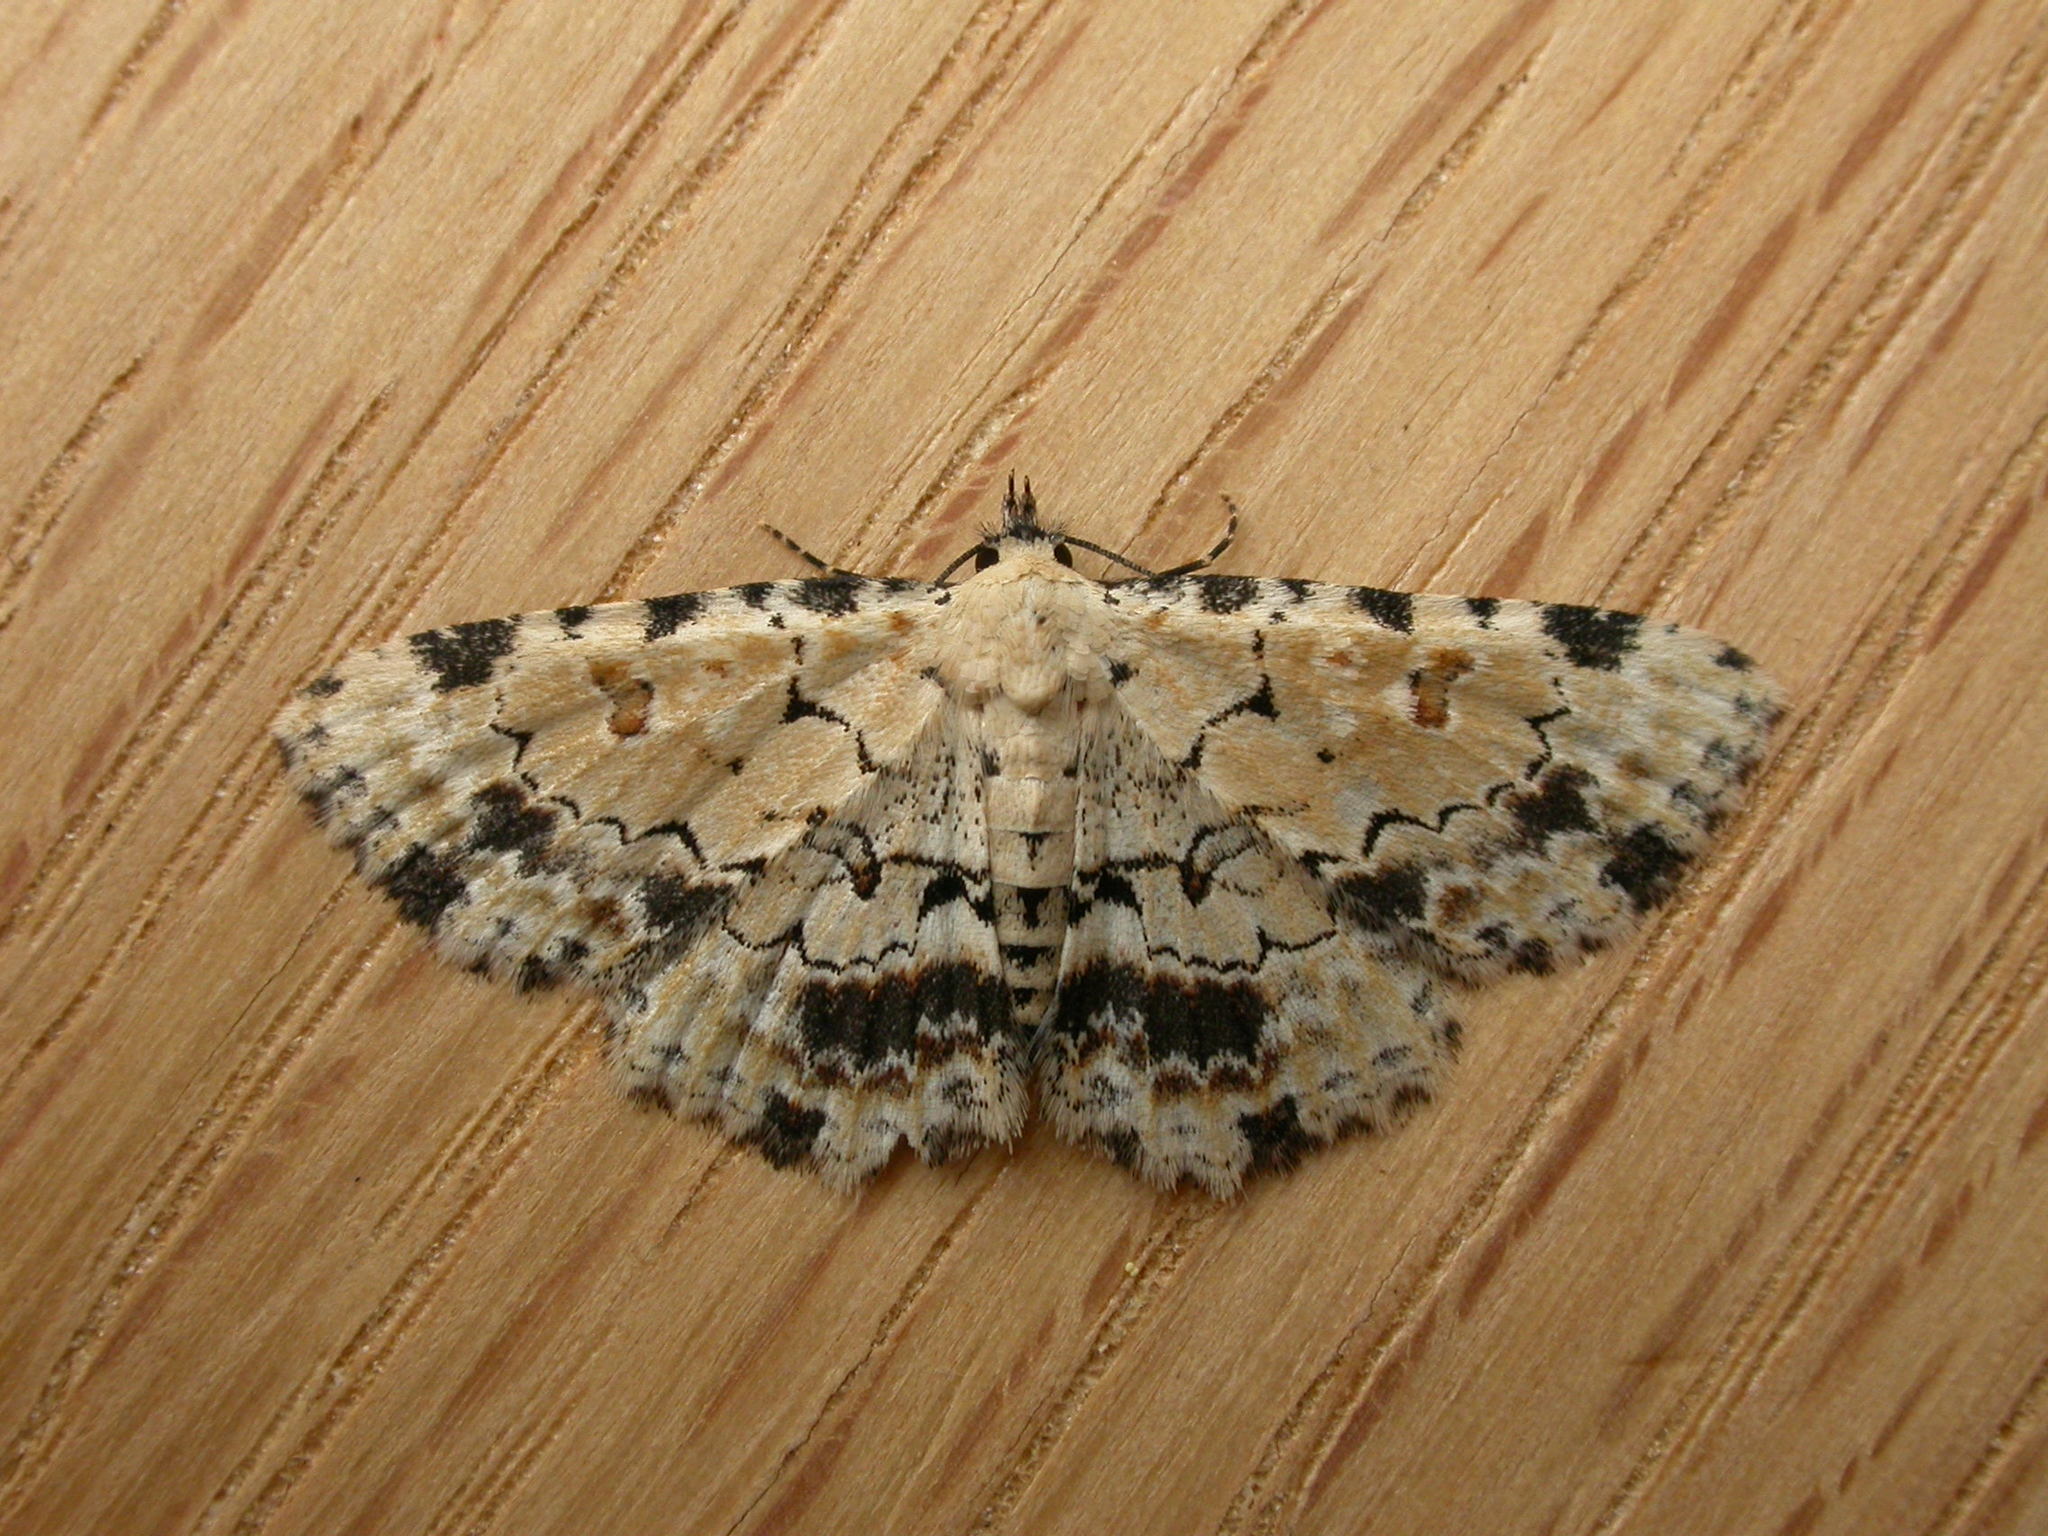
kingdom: Animalia
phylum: Arthropoda
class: Insecta
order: Lepidoptera
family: Erebidae
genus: Sandava
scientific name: Sandava scitisignata
